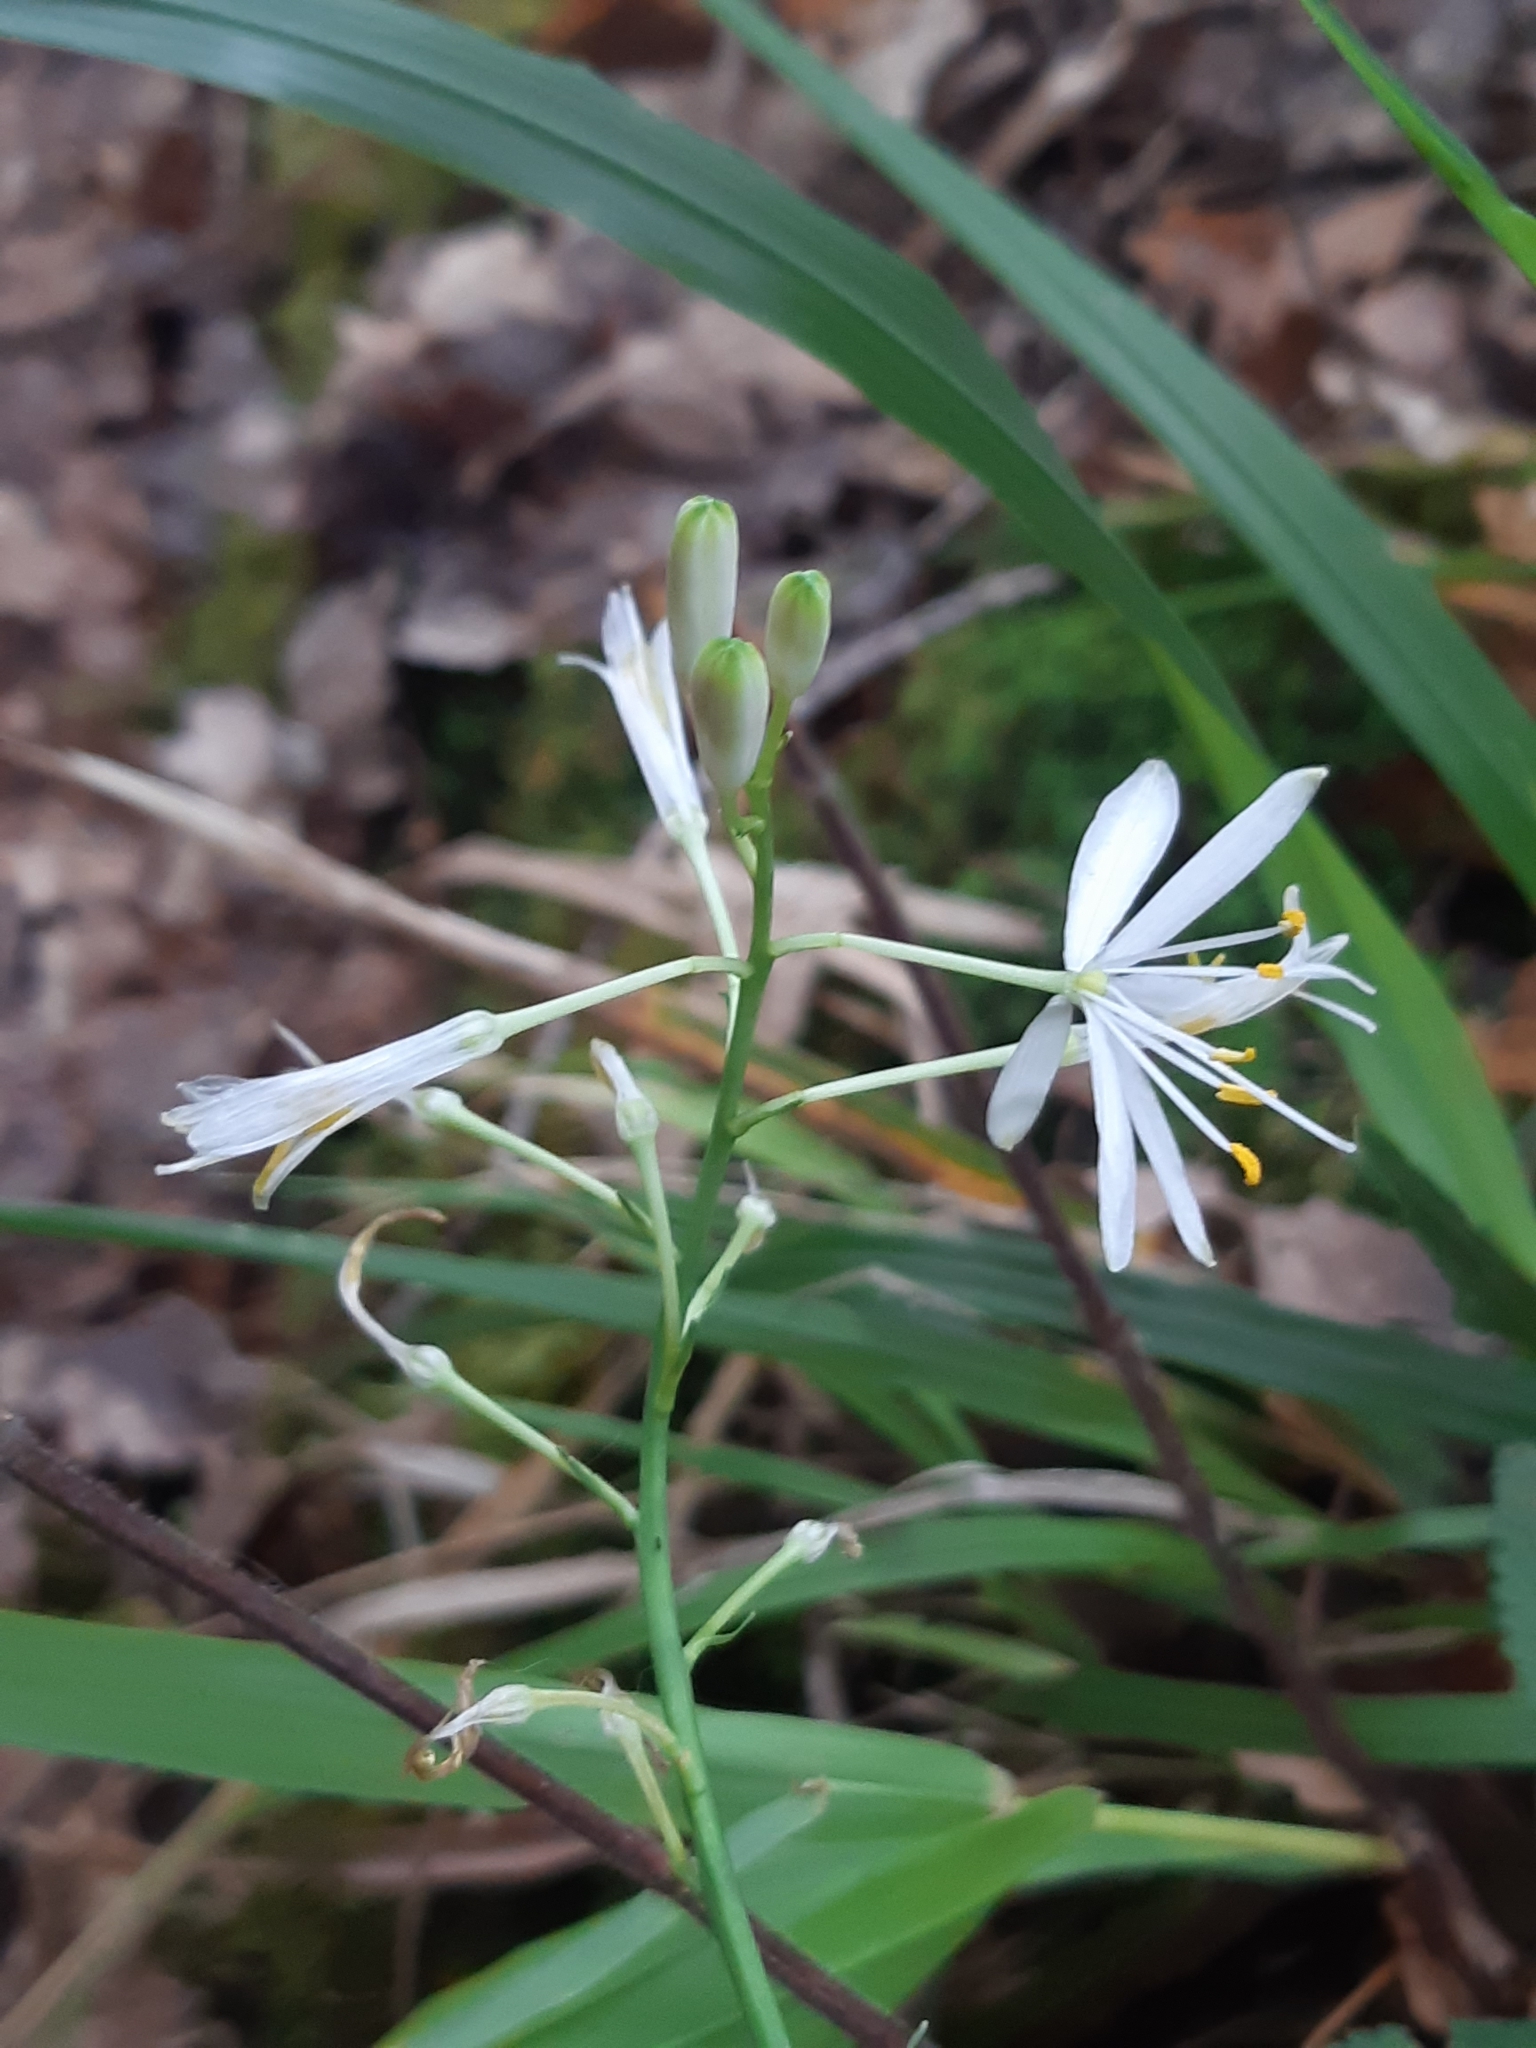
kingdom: Plantae
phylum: Tracheophyta
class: Liliopsida
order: Asparagales
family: Asparagaceae
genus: Anthericum
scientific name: Anthericum ramosum
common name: Branched st. bernard's-lily
